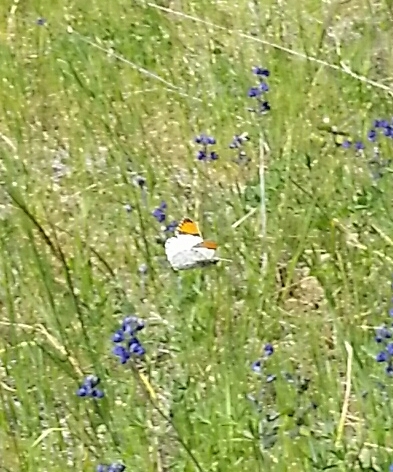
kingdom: Animalia
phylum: Arthropoda
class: Insecta
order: Lepidoptera
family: Pieridae
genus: Anthocharis
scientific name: Anthocharis sara
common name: Sara's orangetip
